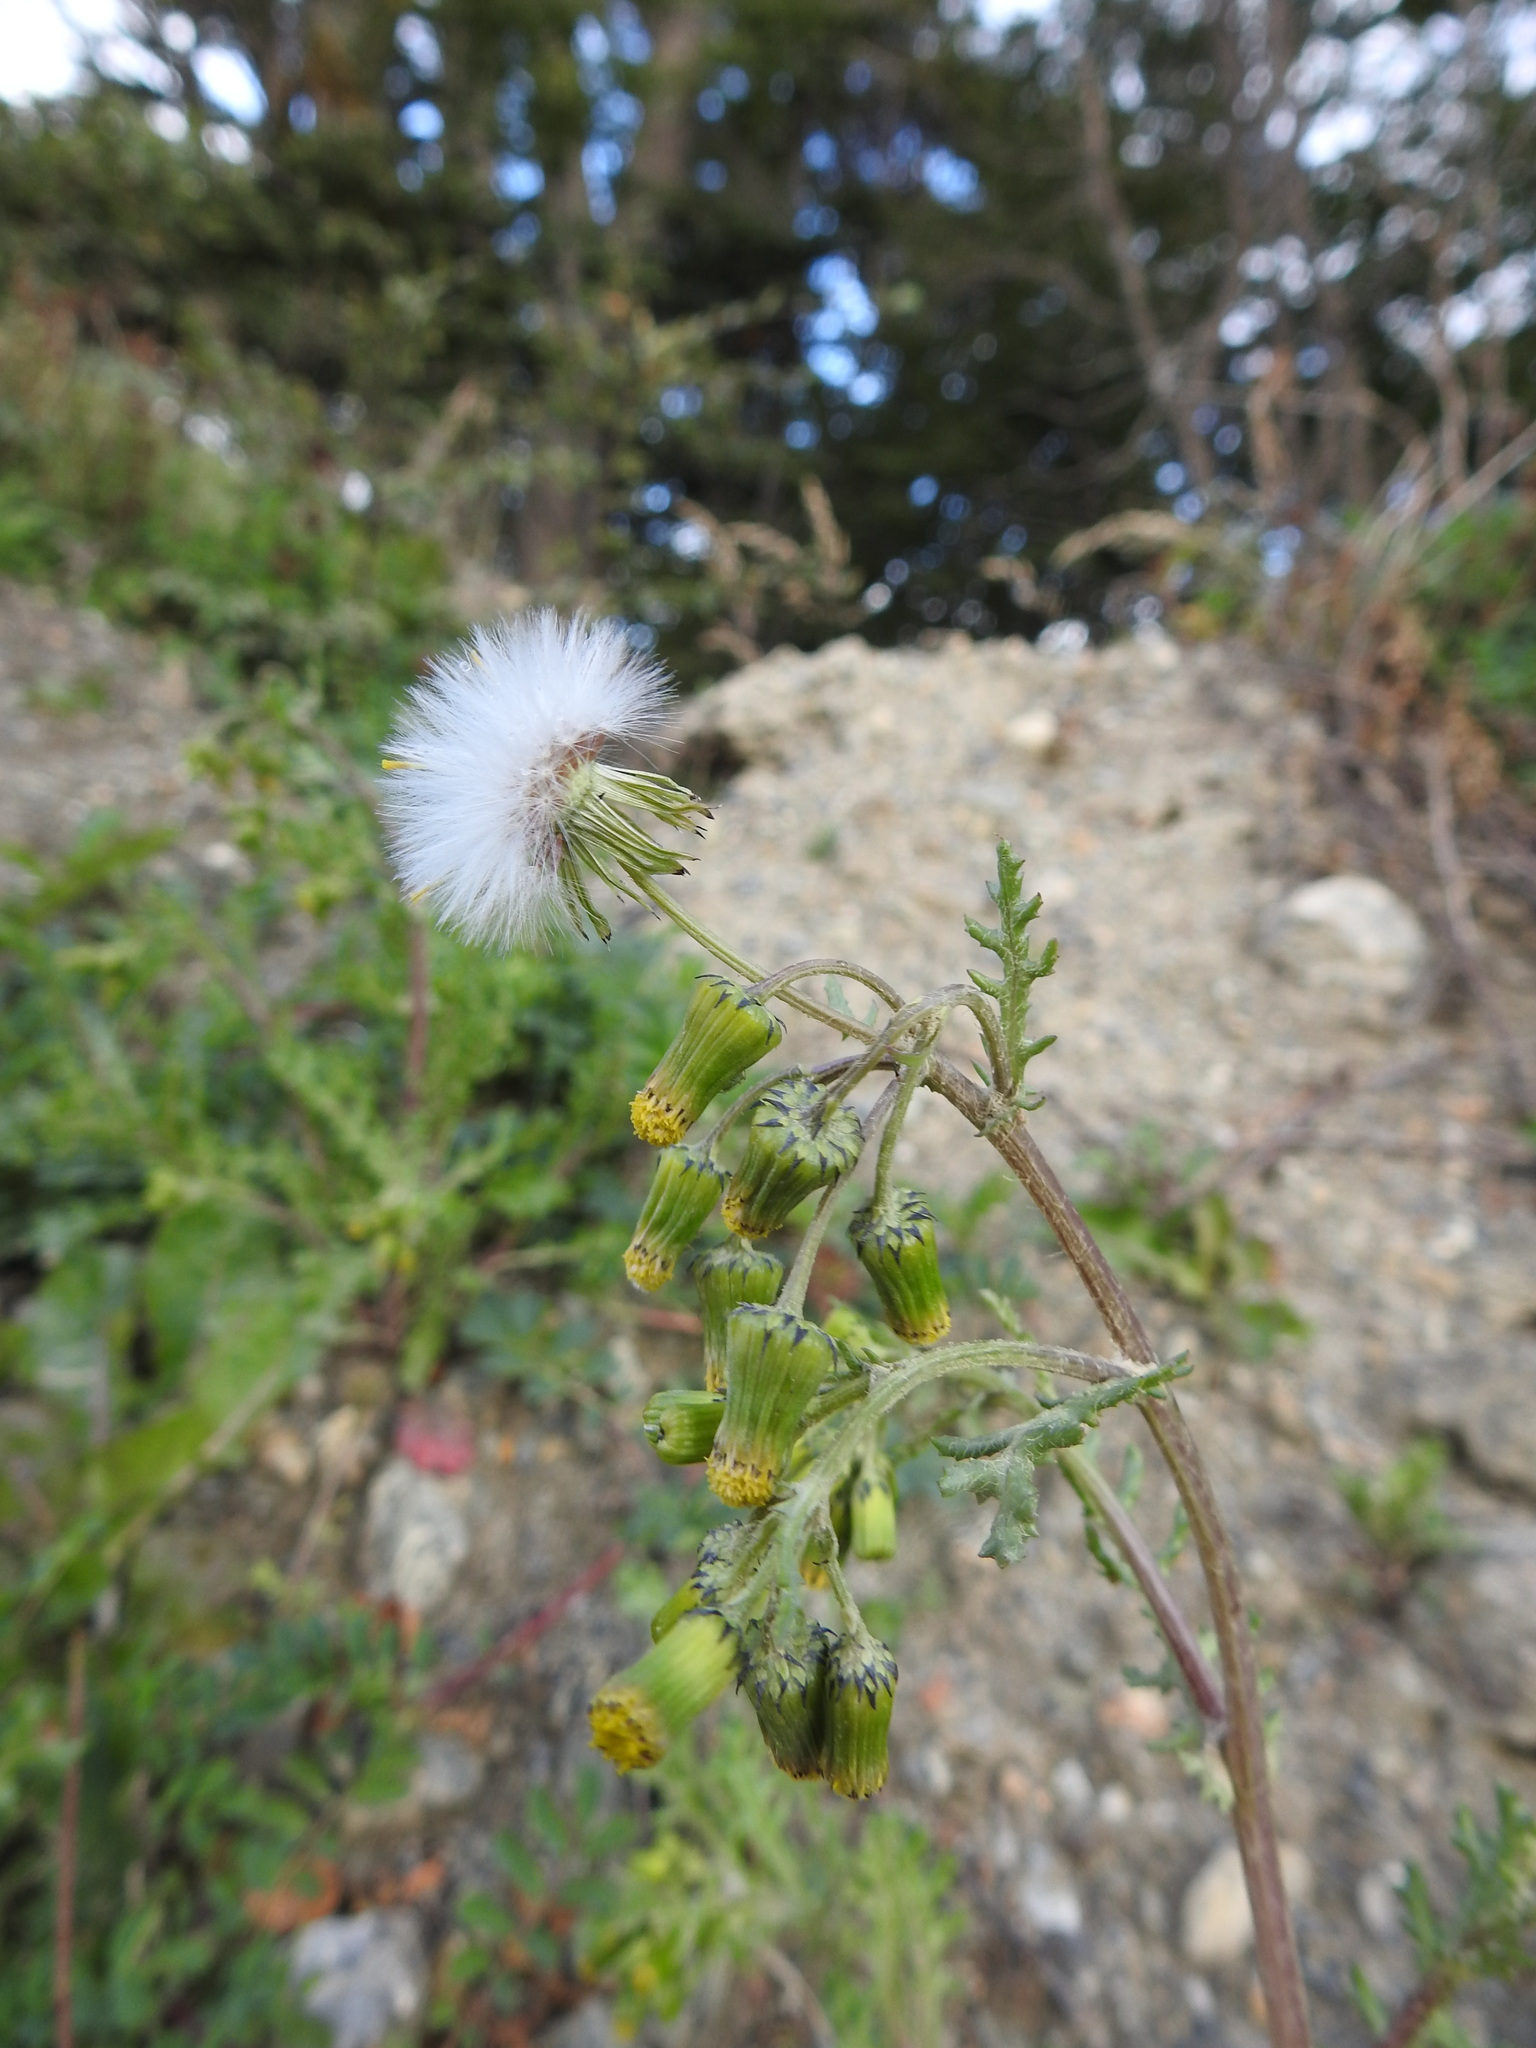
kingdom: Plantae
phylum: Tracheophyta
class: Magnoliopsida
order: Asterales
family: Asteraceae
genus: Senecio
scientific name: Senecio vulgaris
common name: Old-man-in-the-spring
